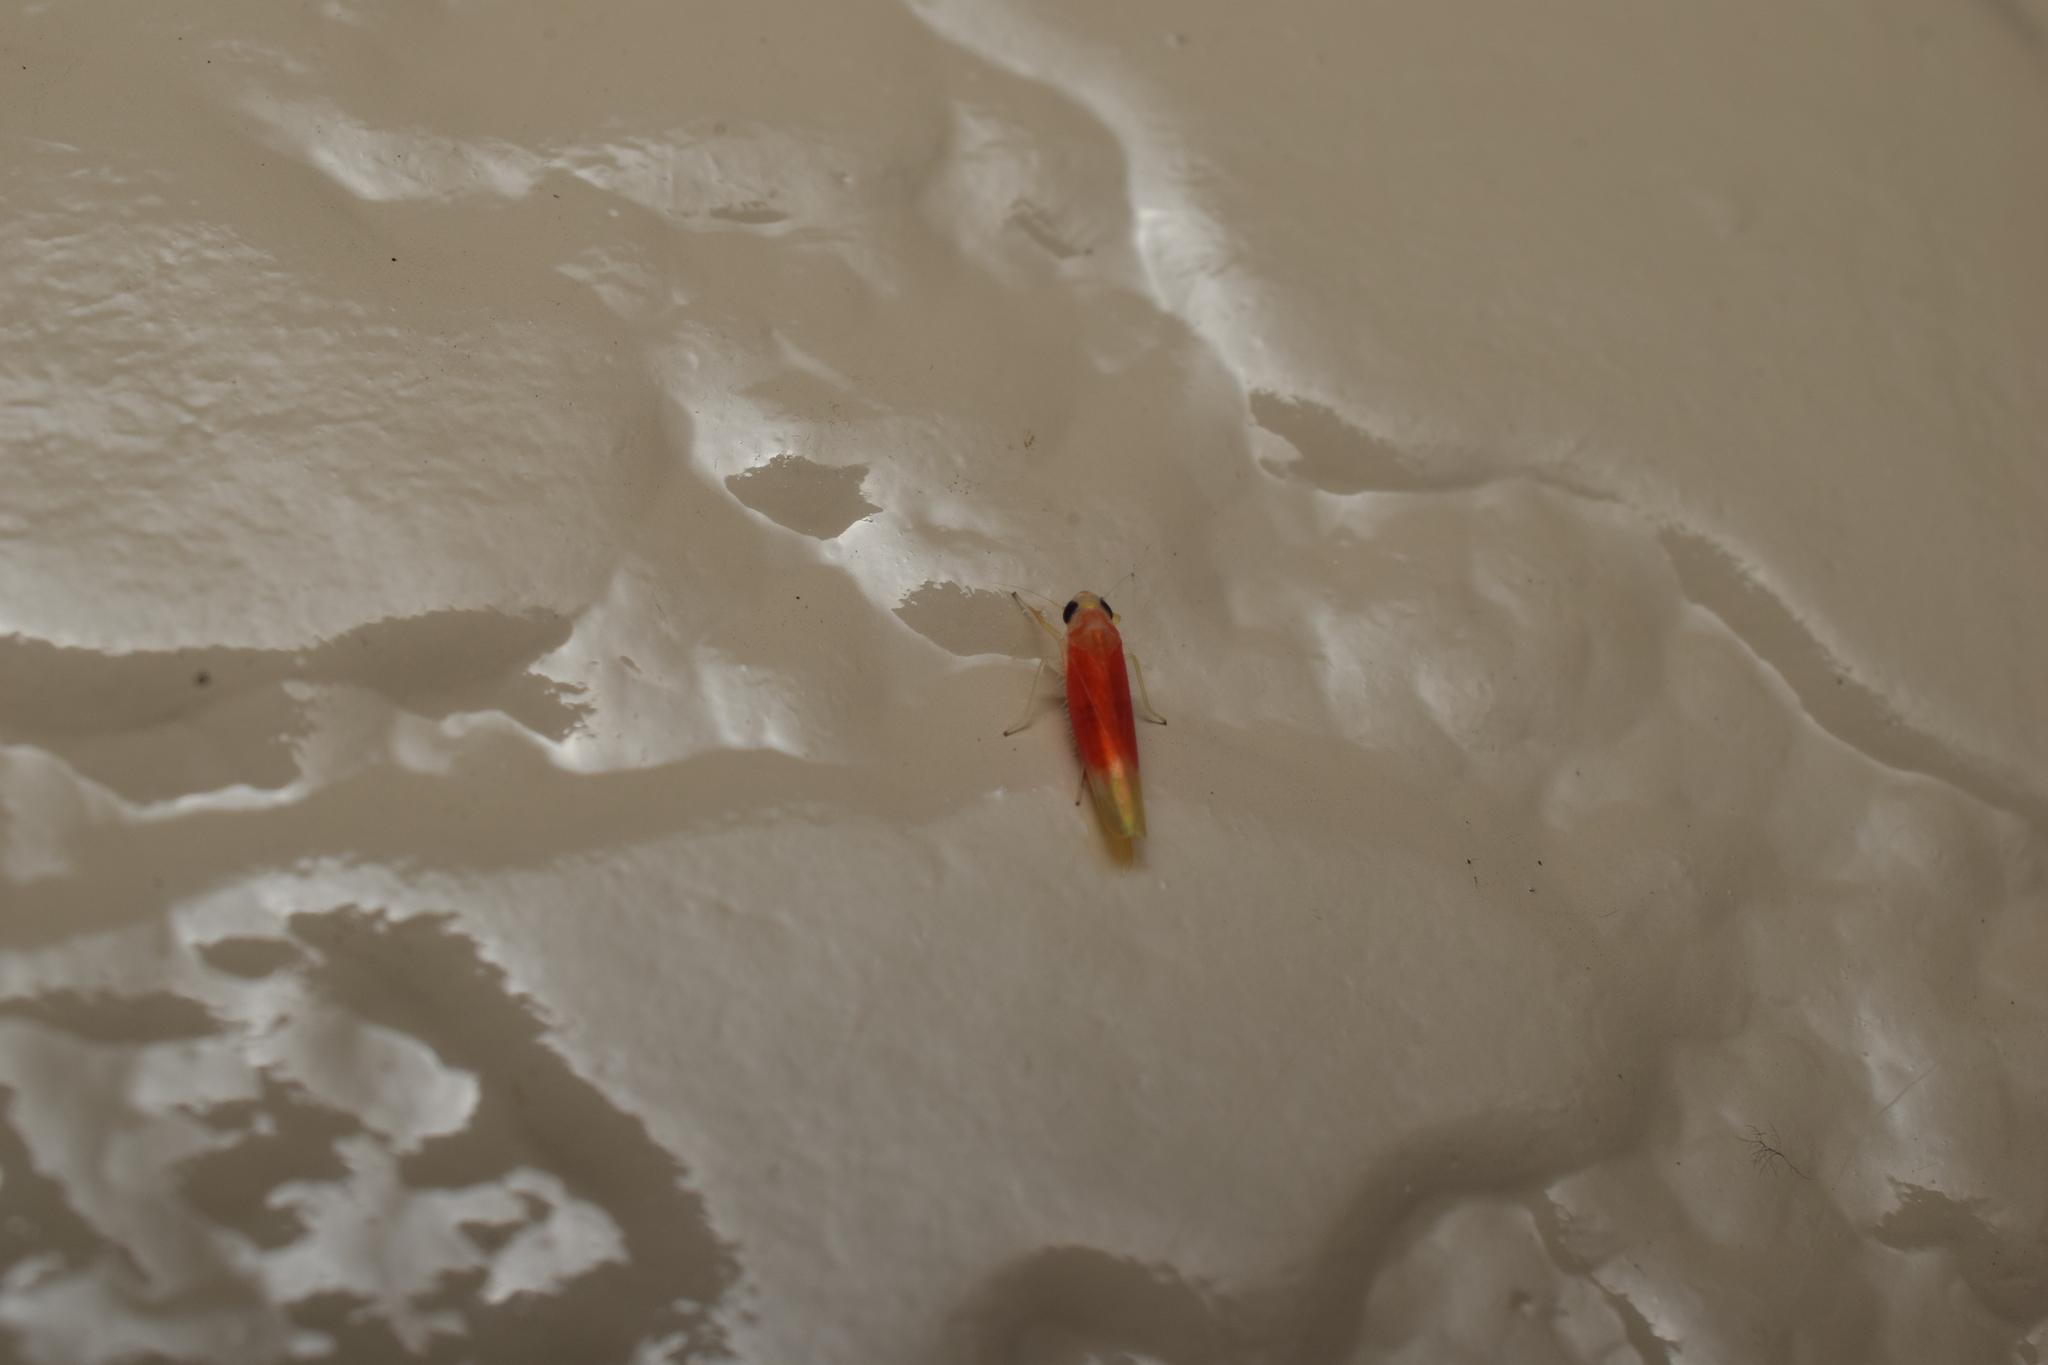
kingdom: Animalia
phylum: Arthropoda
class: Insecta
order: Hemiptera
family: Cicadellidae
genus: Alebrasca
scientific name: Alebrasca actinidiae
